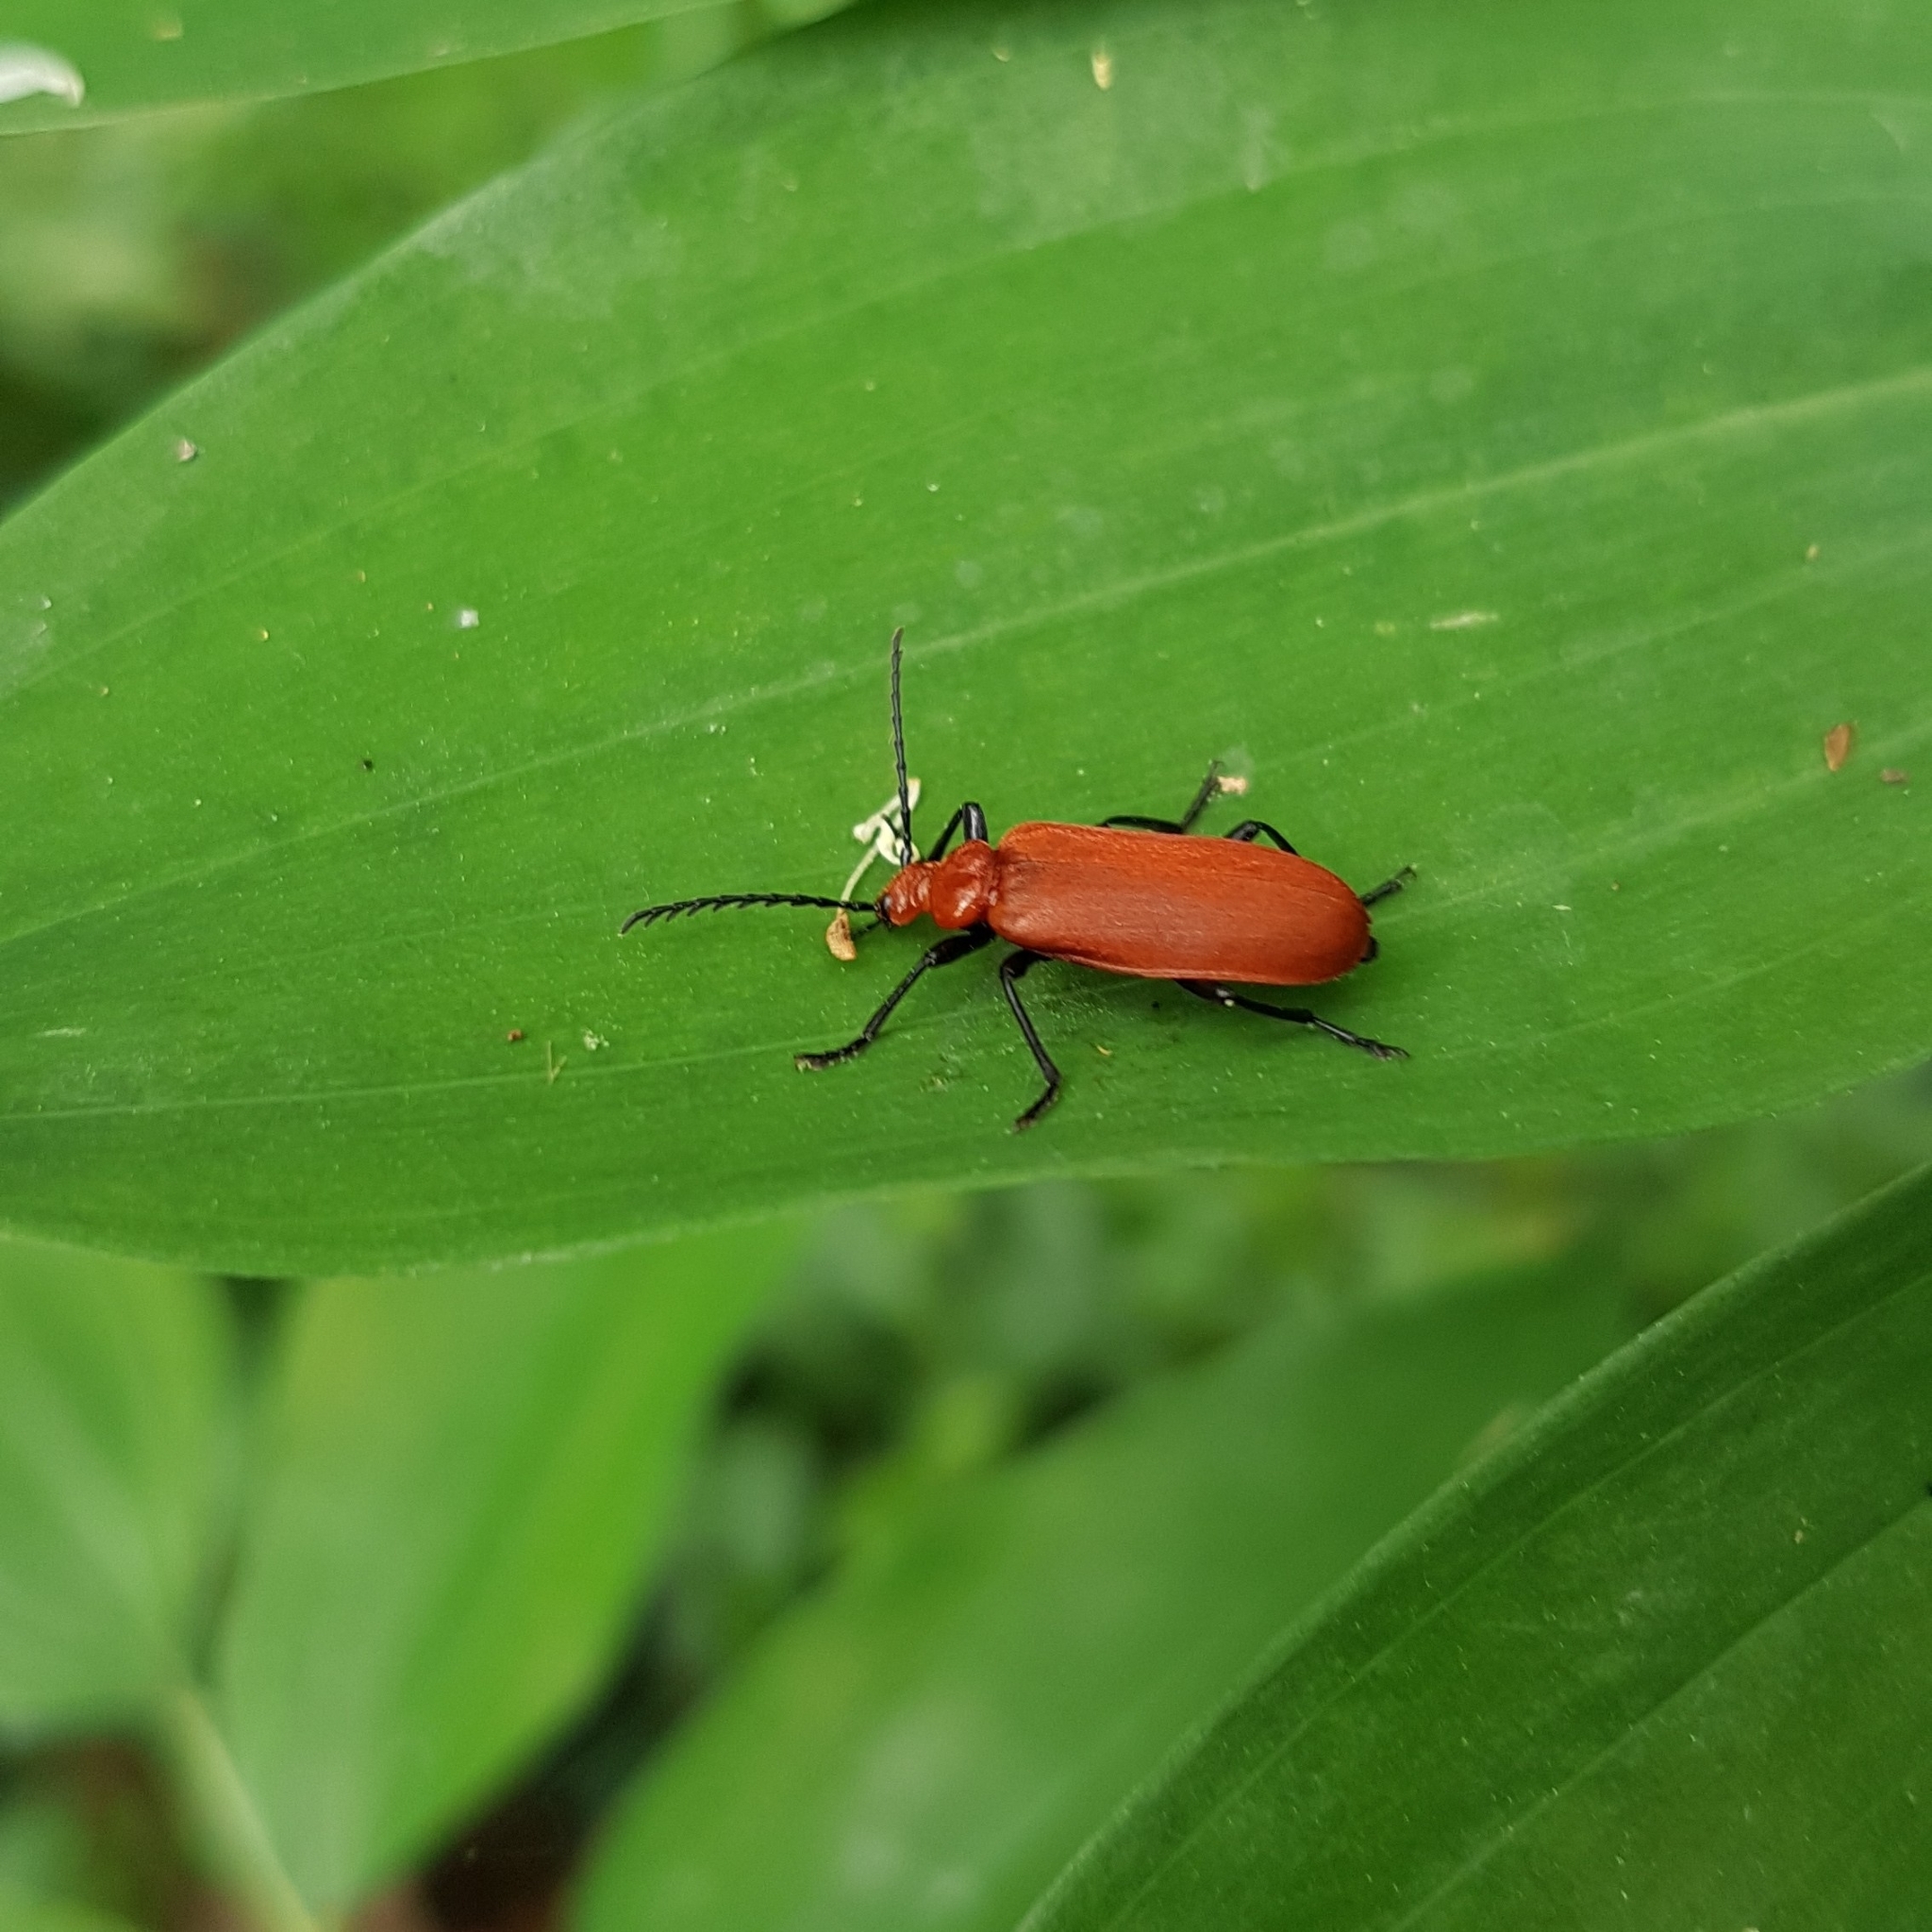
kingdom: Animalia
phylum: Arthropoda
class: Insecta
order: Coleoptera
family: Pyrochroidae
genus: Pyrochroa
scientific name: Pyrochroa serraticornis
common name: Red-headed cardinal beetle
